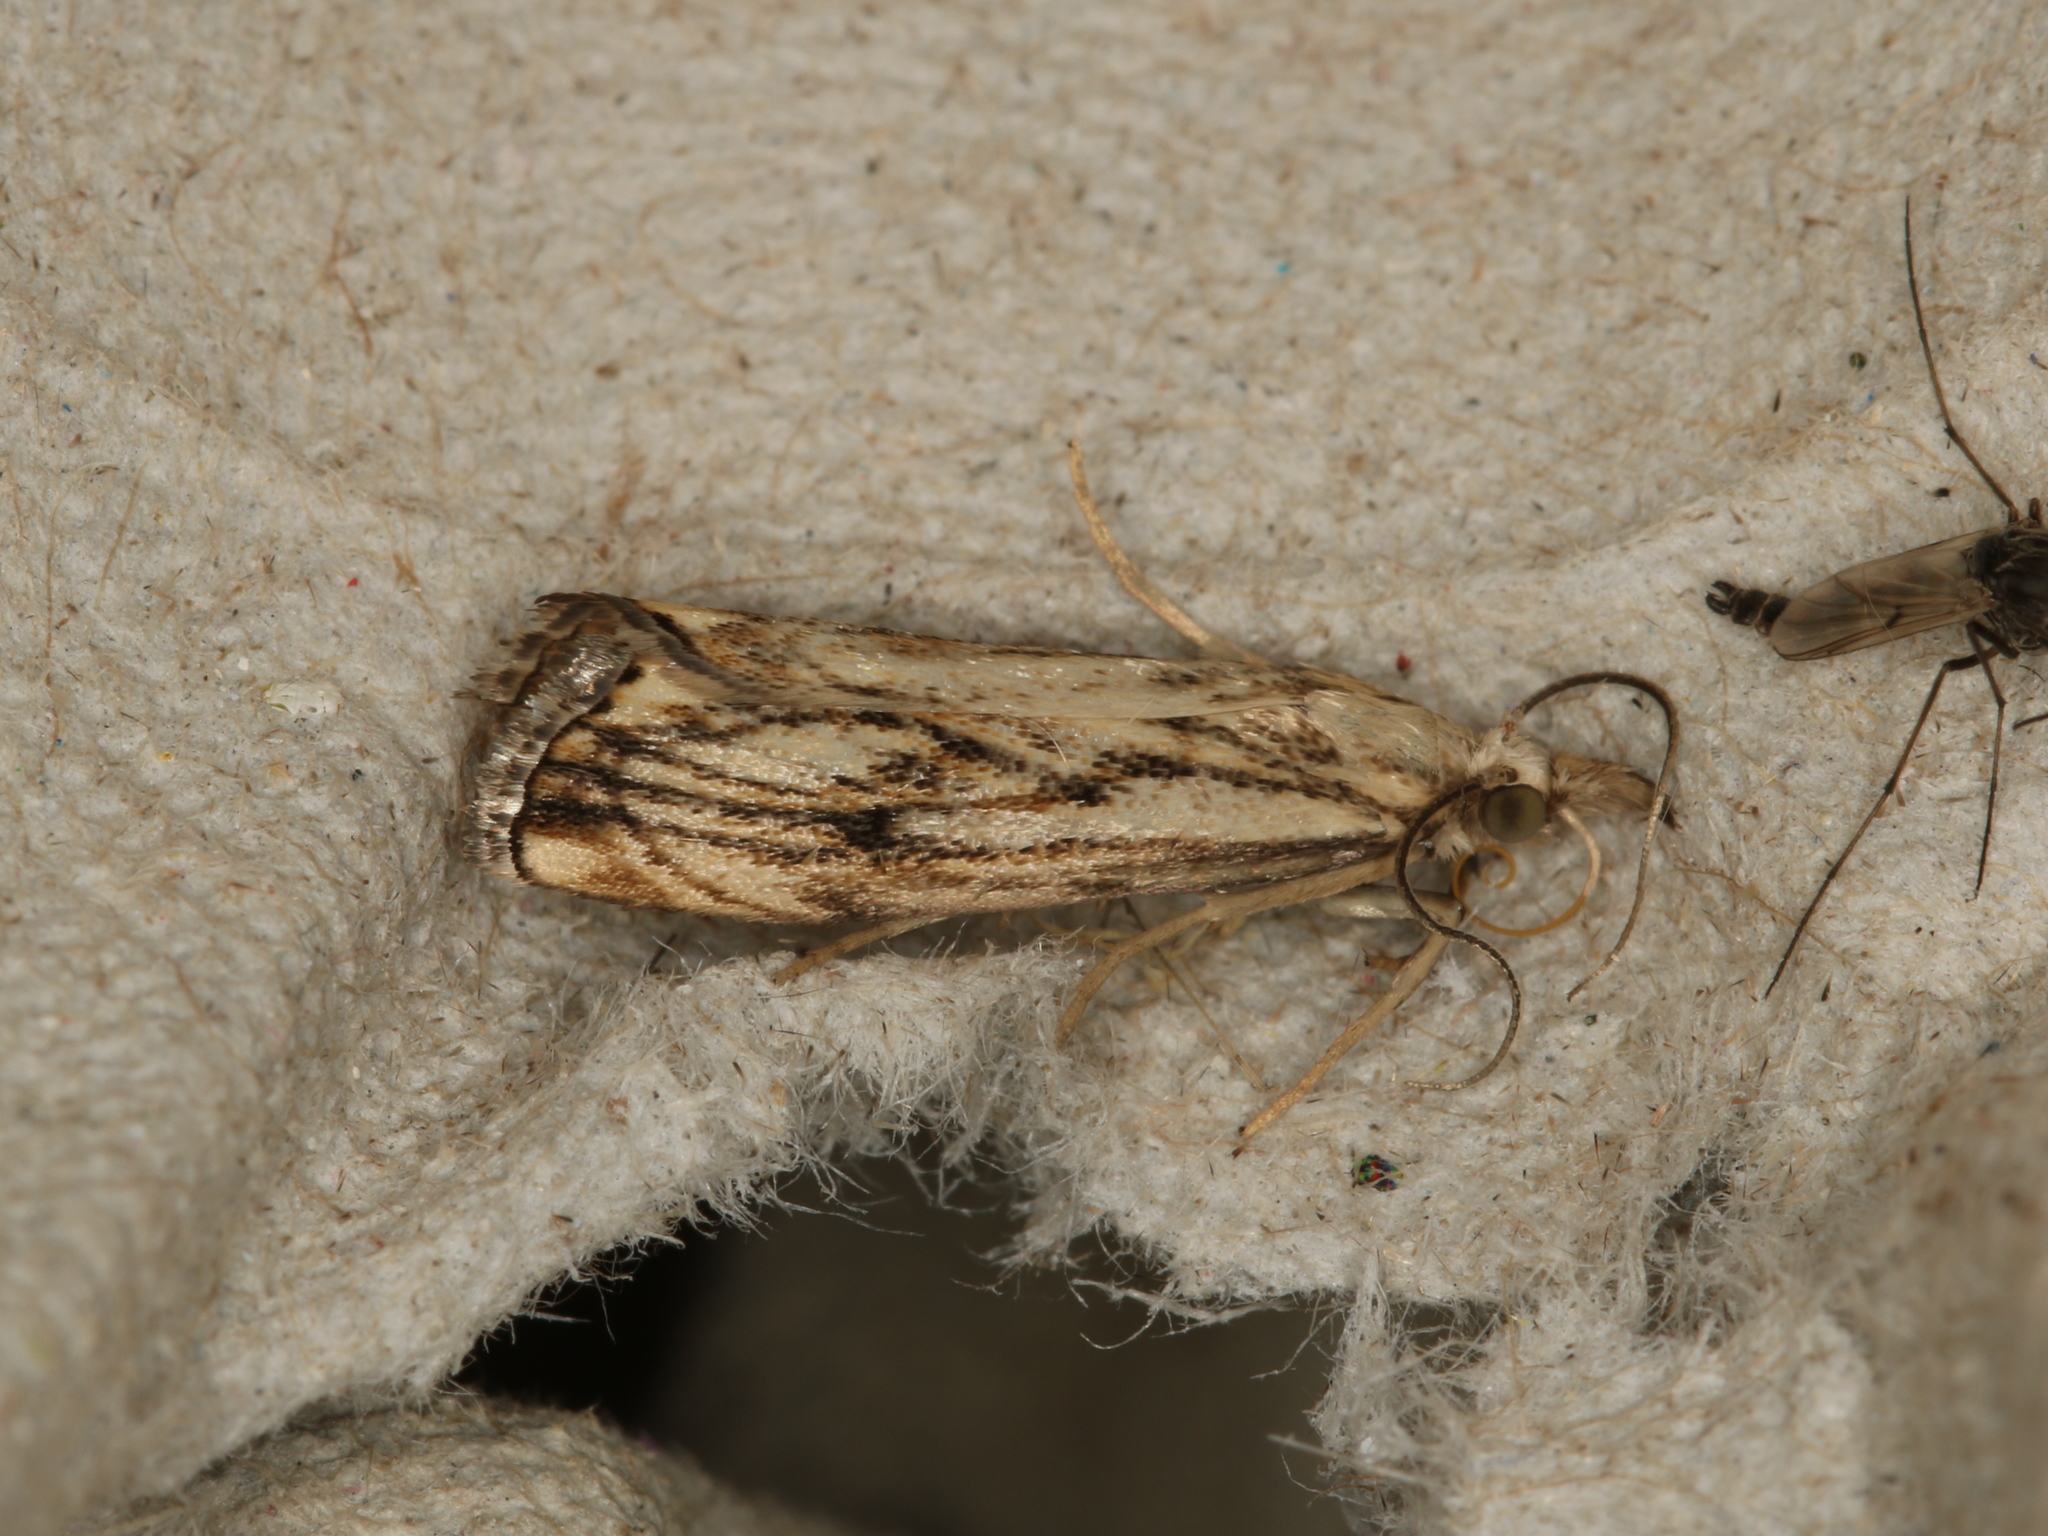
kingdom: Animalia
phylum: Arthropoda
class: Insecta
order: Lepidoptera
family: Crambidae
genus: Catoptria
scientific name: Catoptria falsella
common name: Chequered grass-veneer
